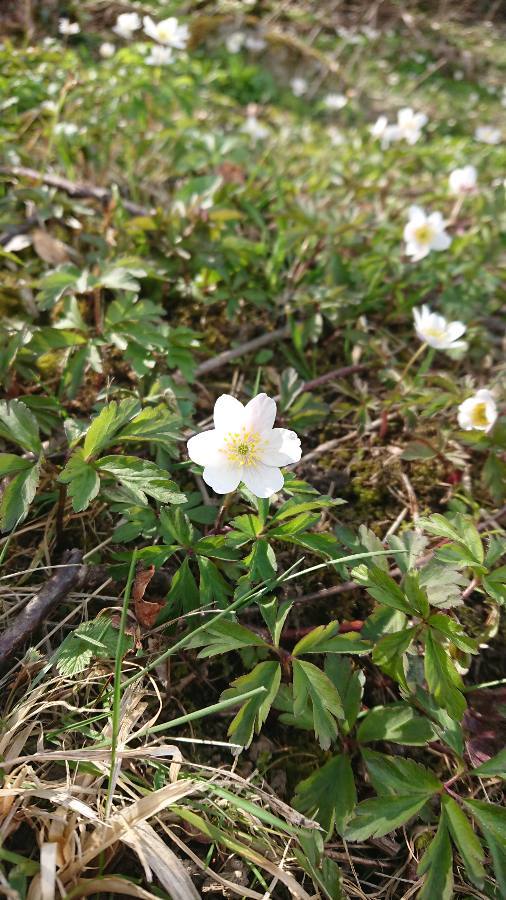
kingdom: Plantae
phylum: Tracheophyta
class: Magnoliopsida
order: Ranunculales
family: Ranunculaceae
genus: Anemone
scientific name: Anemone nemorosa
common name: Wood anemone
